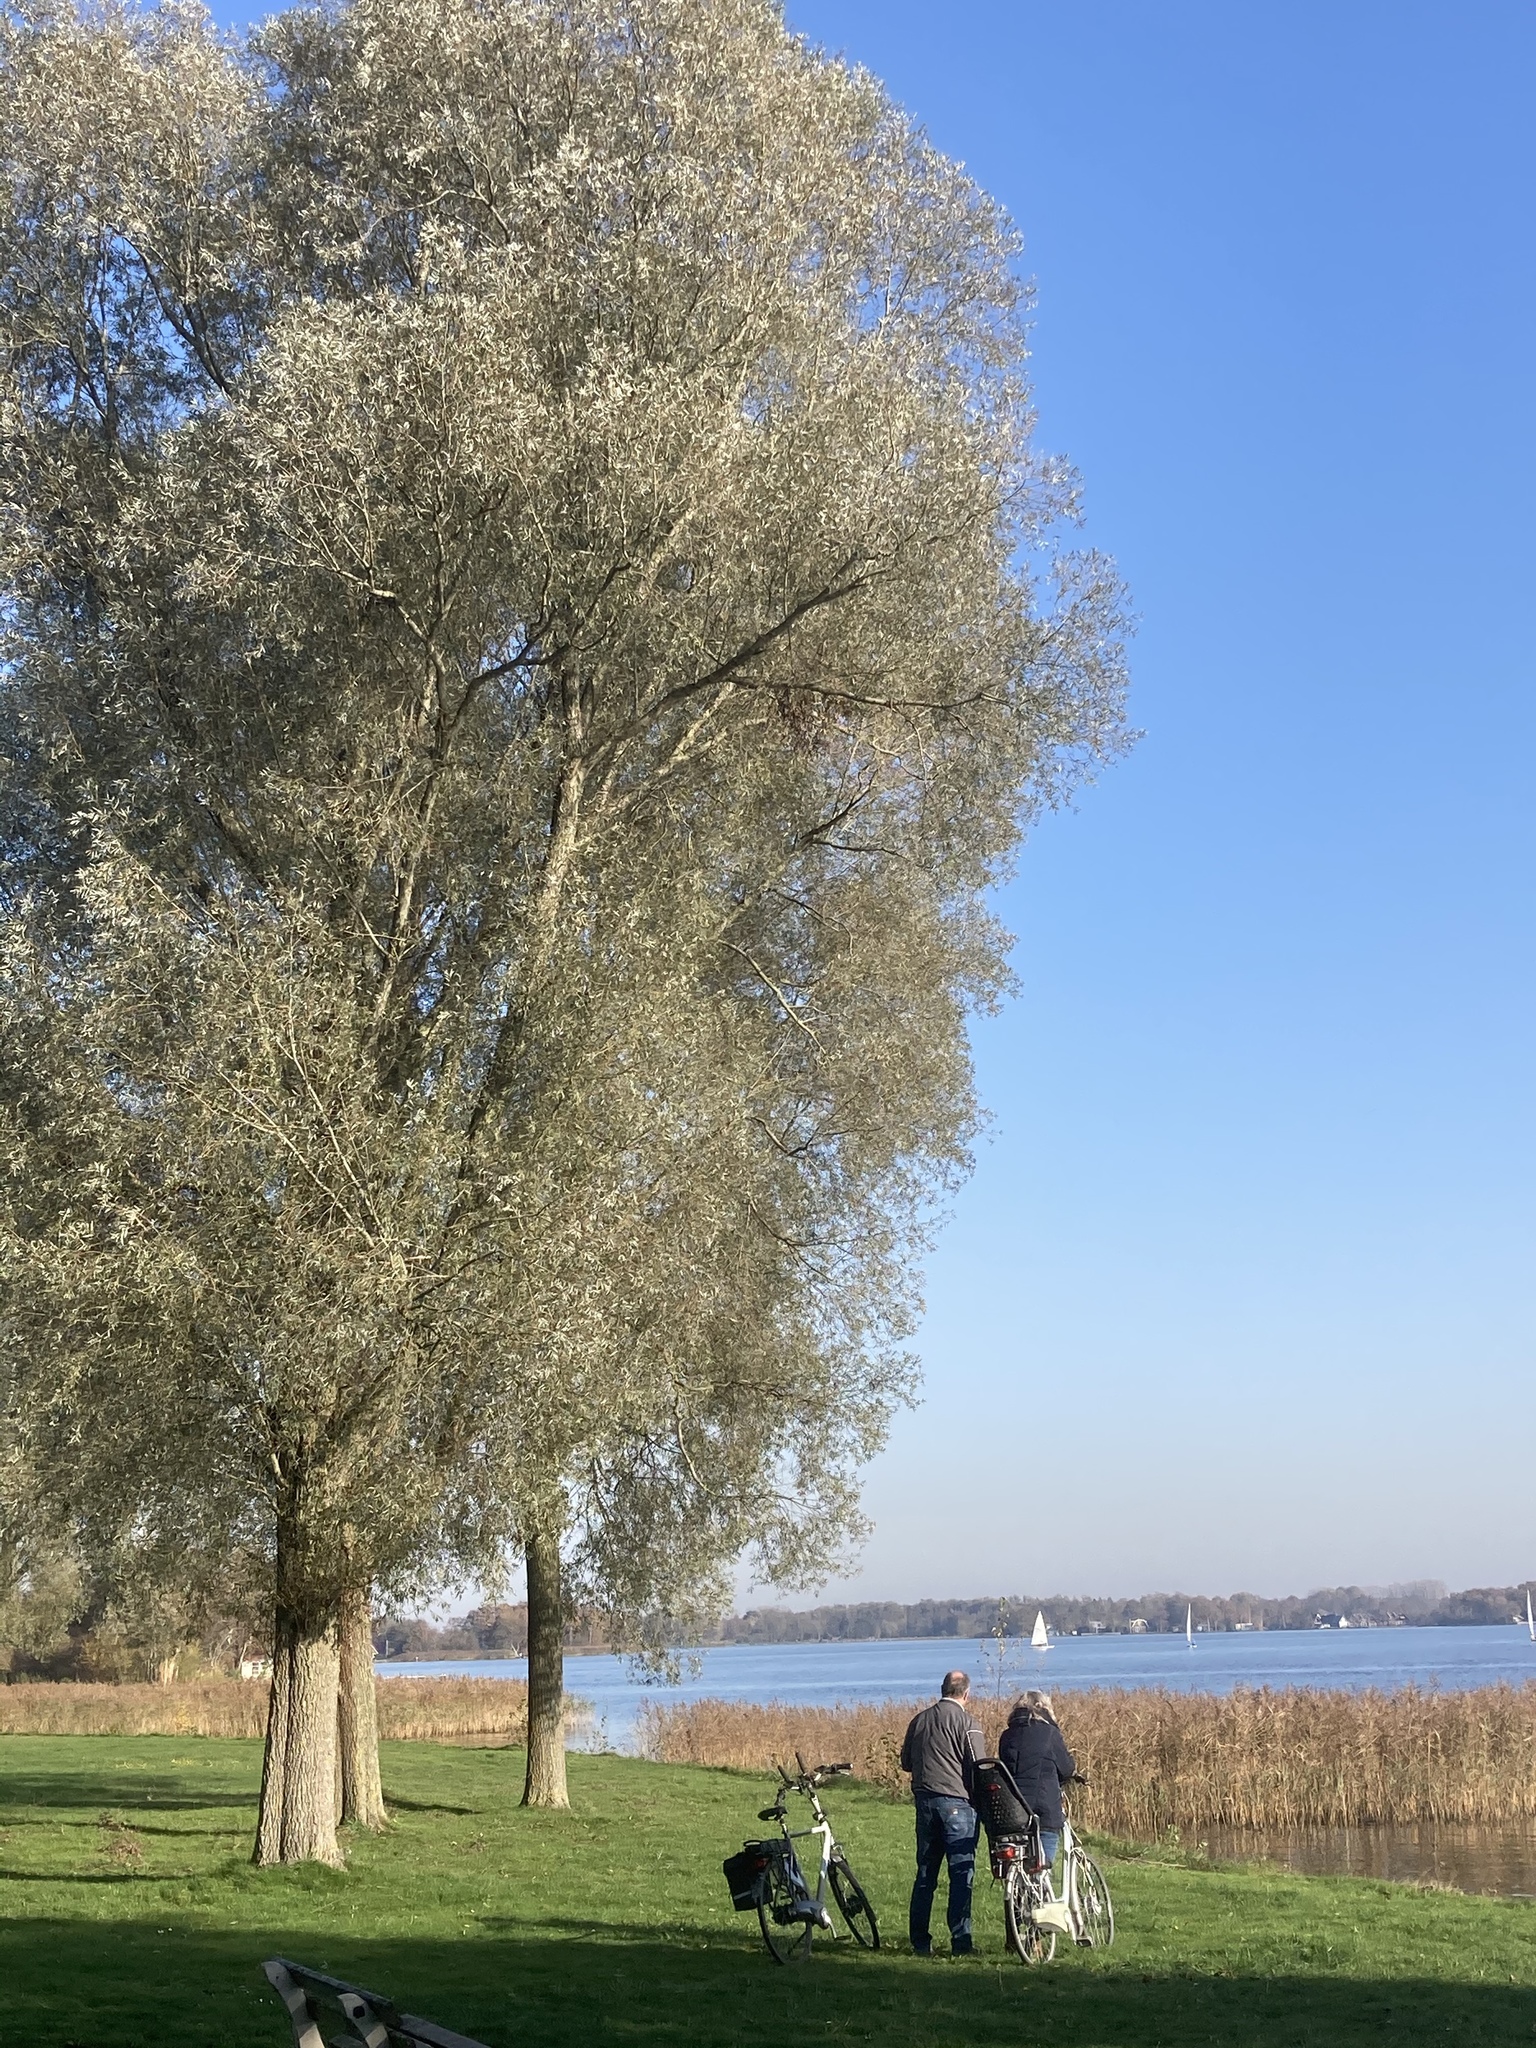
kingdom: Plantae
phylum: Tracheophyta
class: Magnoliopsida
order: Malpighiales
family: Salicaceae
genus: Salix
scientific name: Salix alba
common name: White willow
